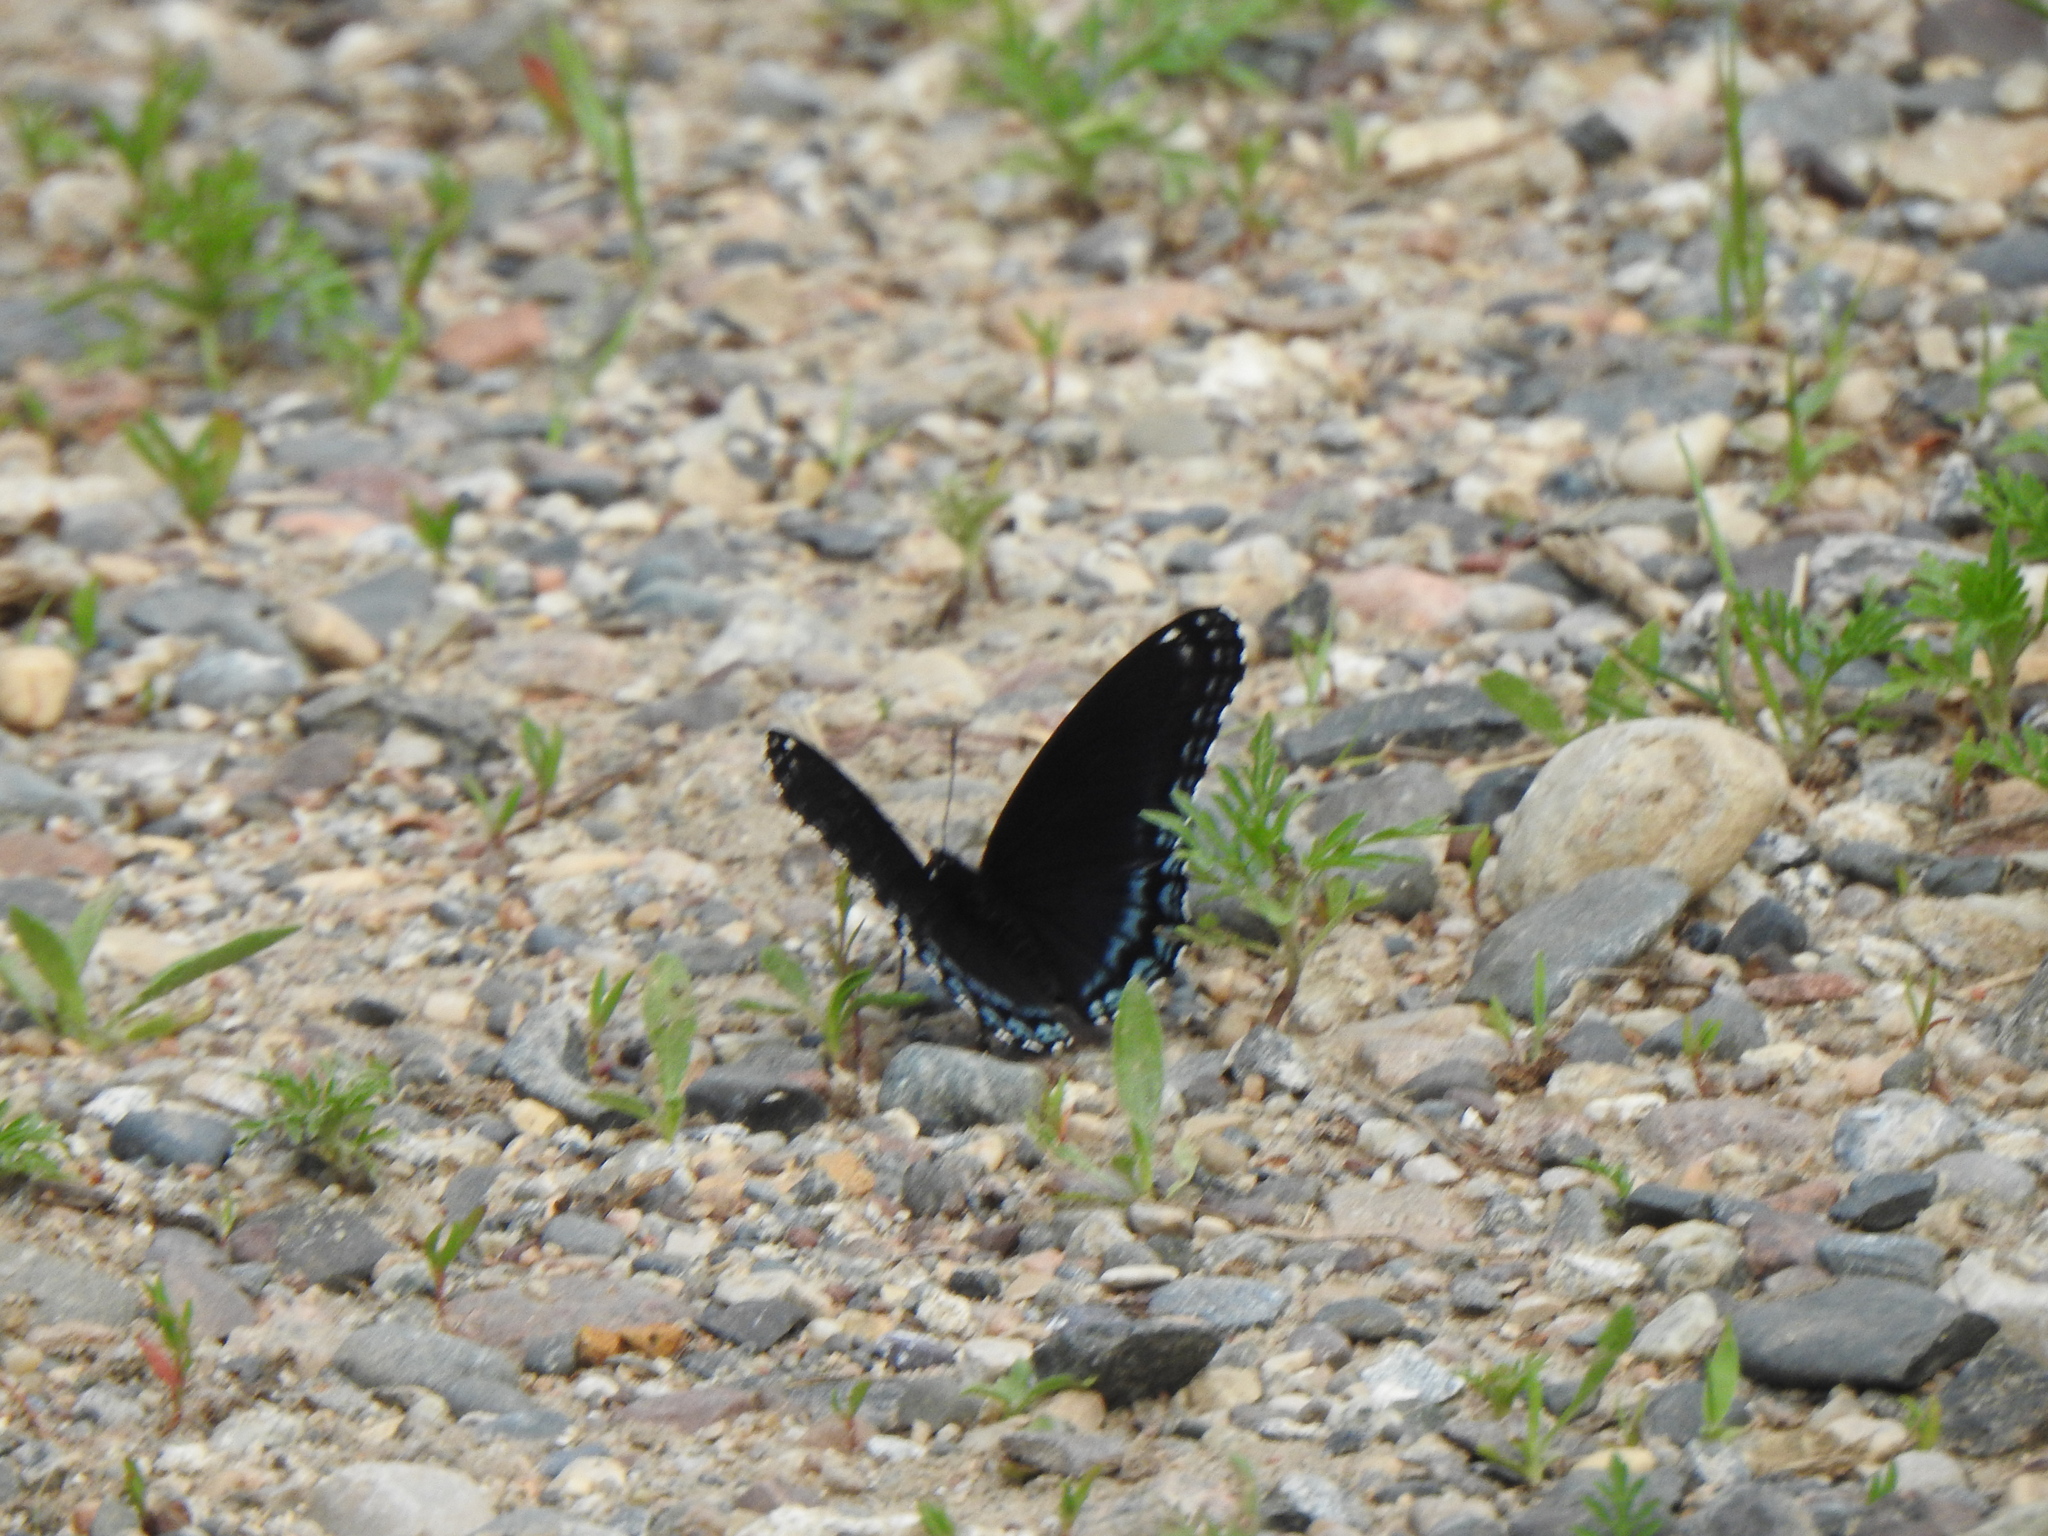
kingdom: Animalia
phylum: Arthropoda
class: Insecta
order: Lepidoptera
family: Nymphalidae
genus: Limenitis
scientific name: Limenitis astyanax
